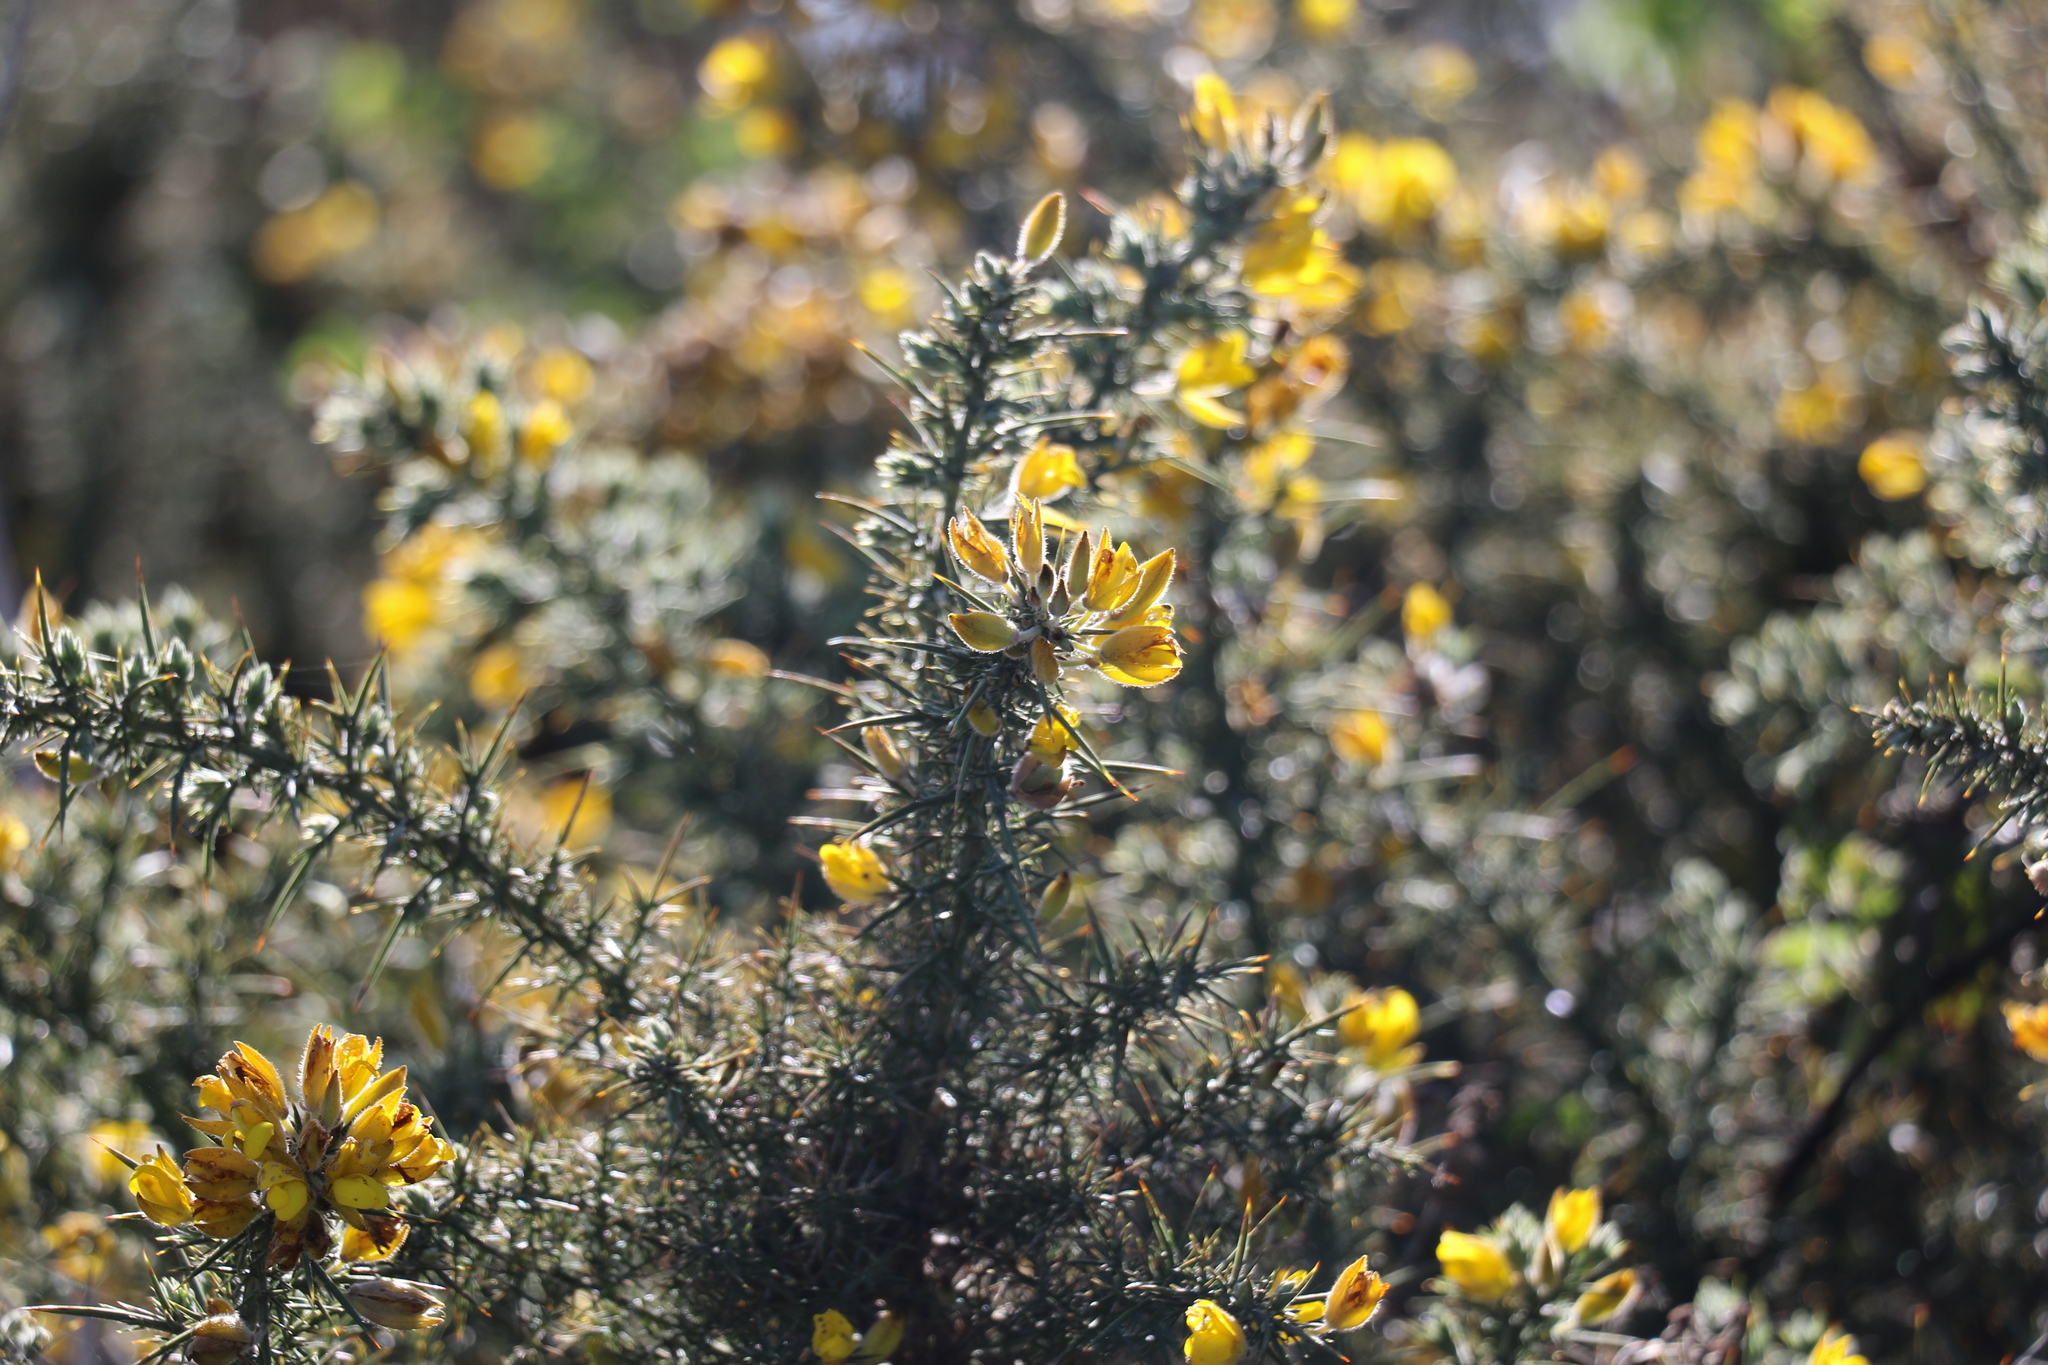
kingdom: Plantae
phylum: Tracheophyta
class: Magnoliopsida
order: Fabales
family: Fabaceae
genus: Ulex
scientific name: Ulex europaeus
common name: Common gorse
